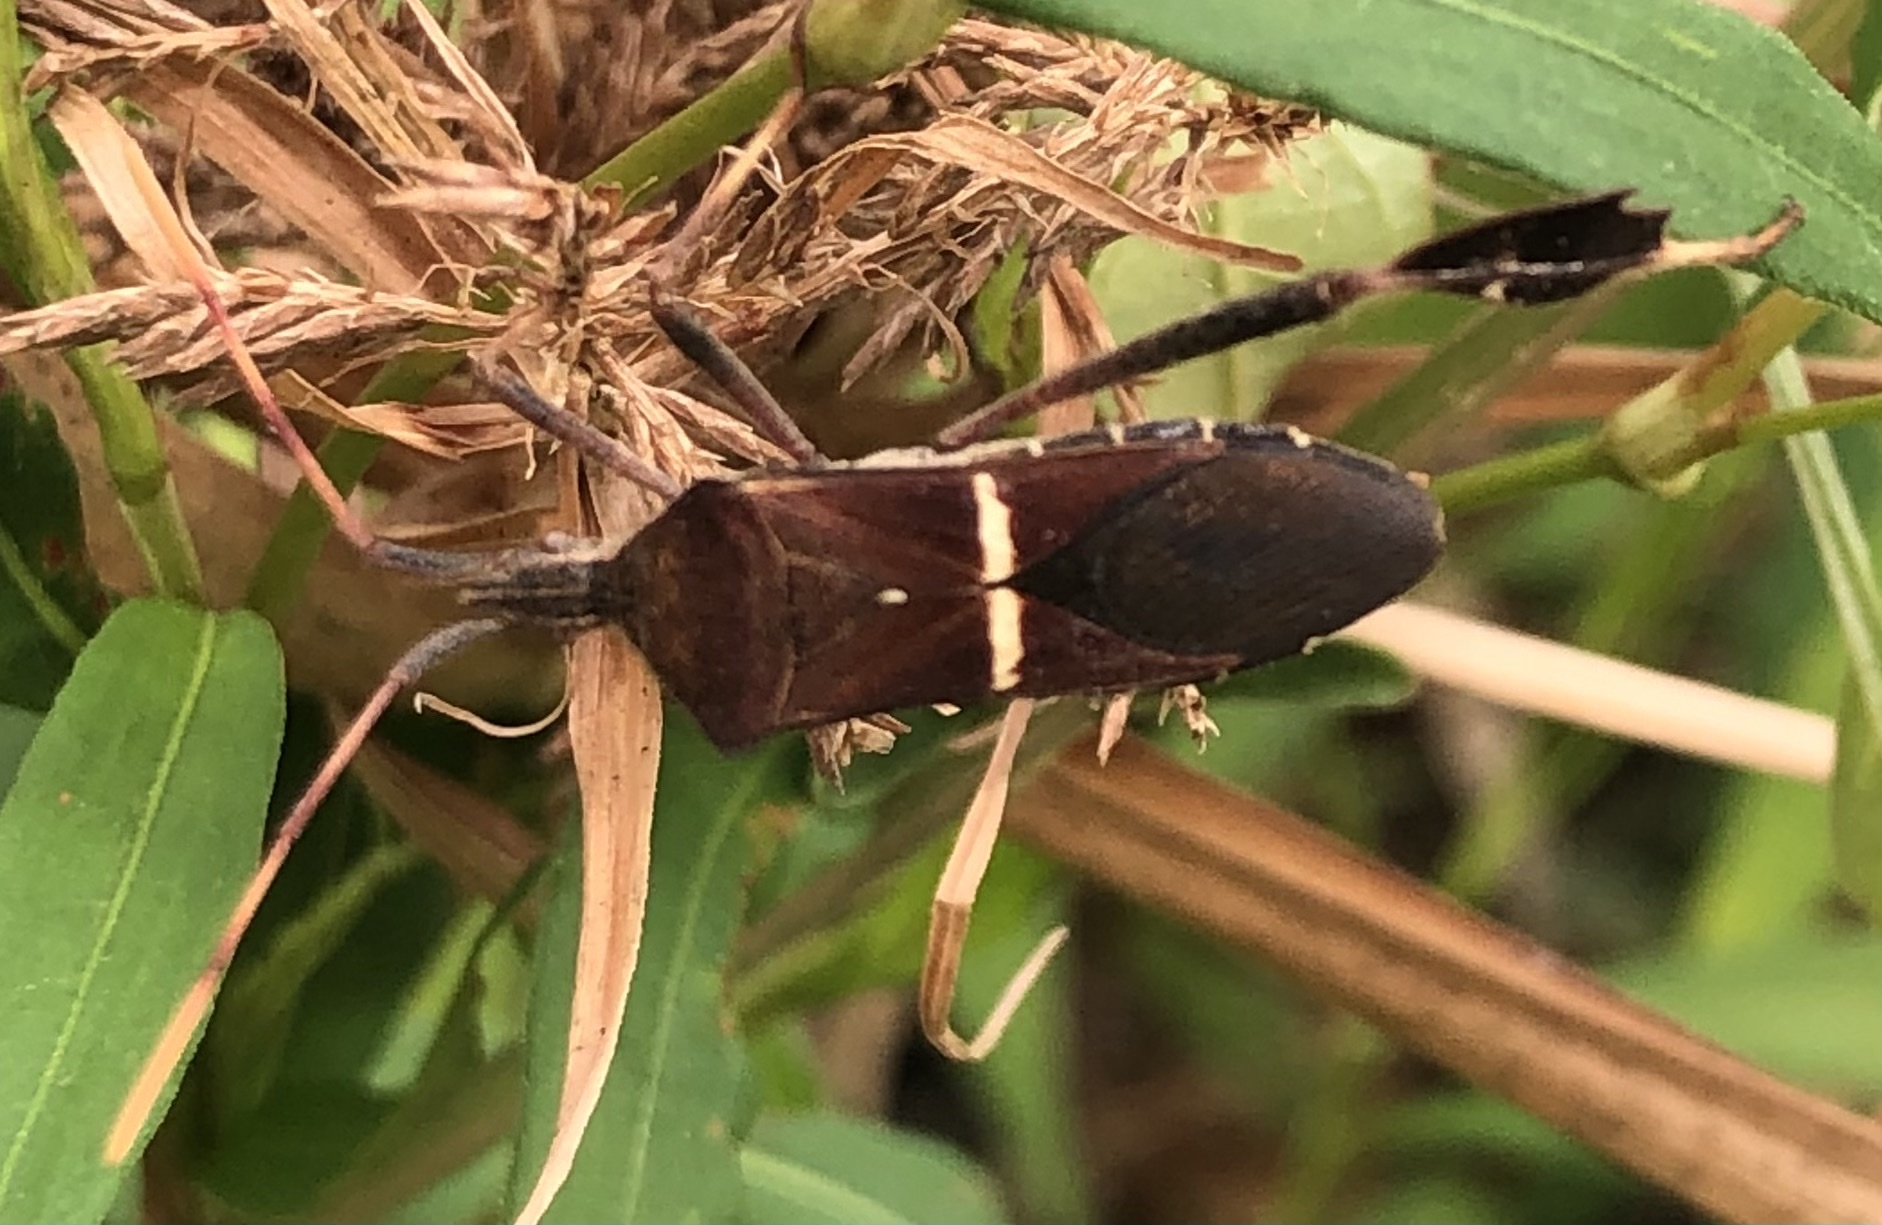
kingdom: Animalia
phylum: Arthropoda
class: Insecta
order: Hemiptera
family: Coreidae
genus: Leptoglossus
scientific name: Leptoglossus phyllopus
